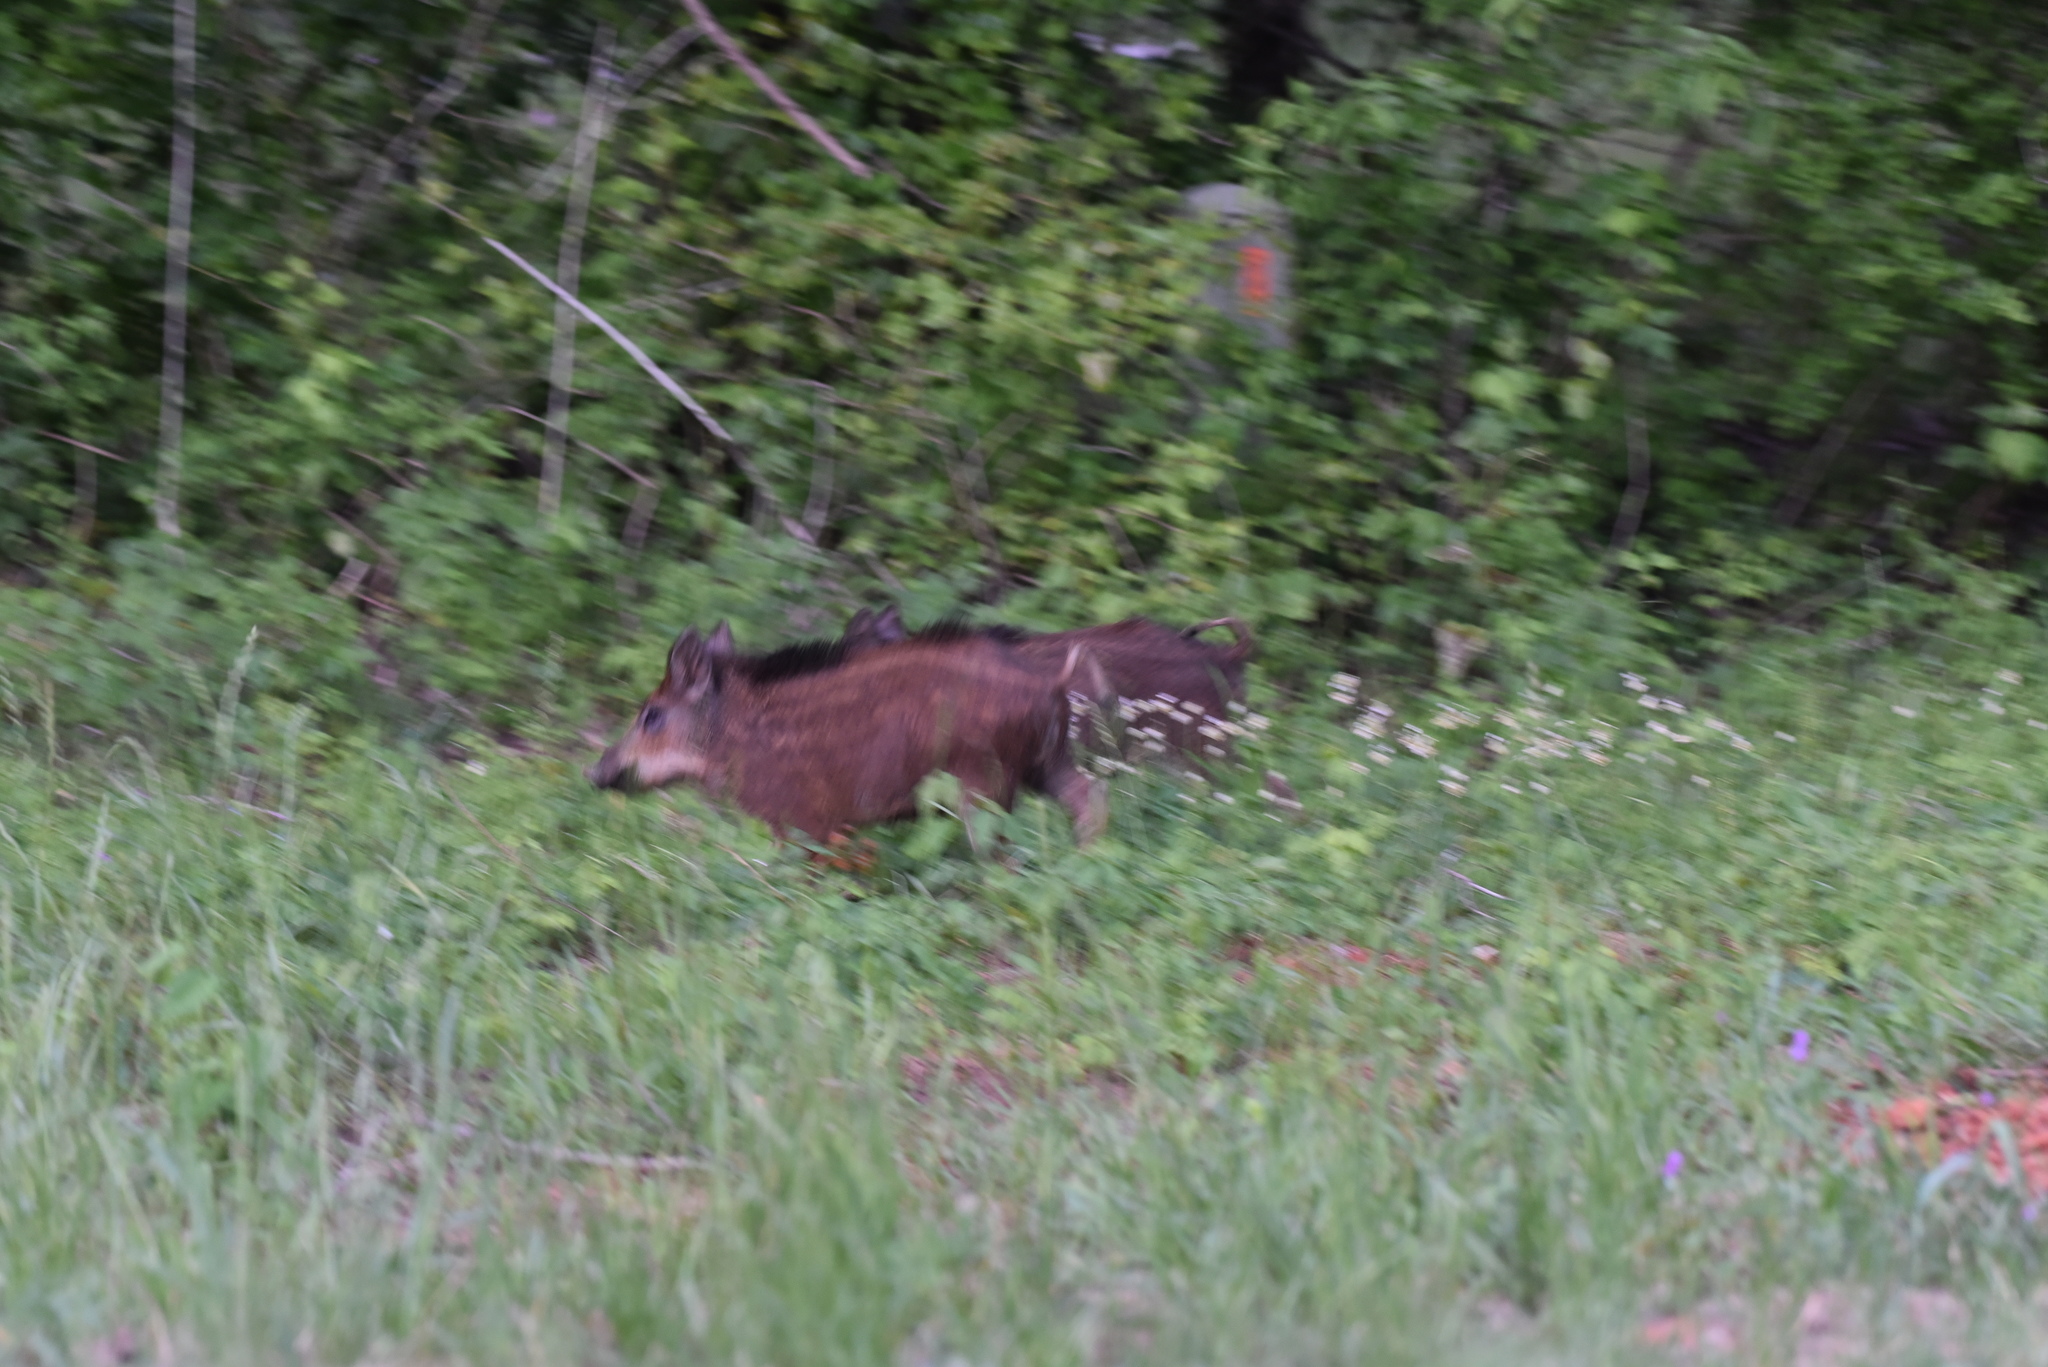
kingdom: Animalia
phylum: Chordata
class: Mammalia
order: Artiodactyla
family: Suidae
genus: Sus
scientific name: Sus scrofa
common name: Wild boar
